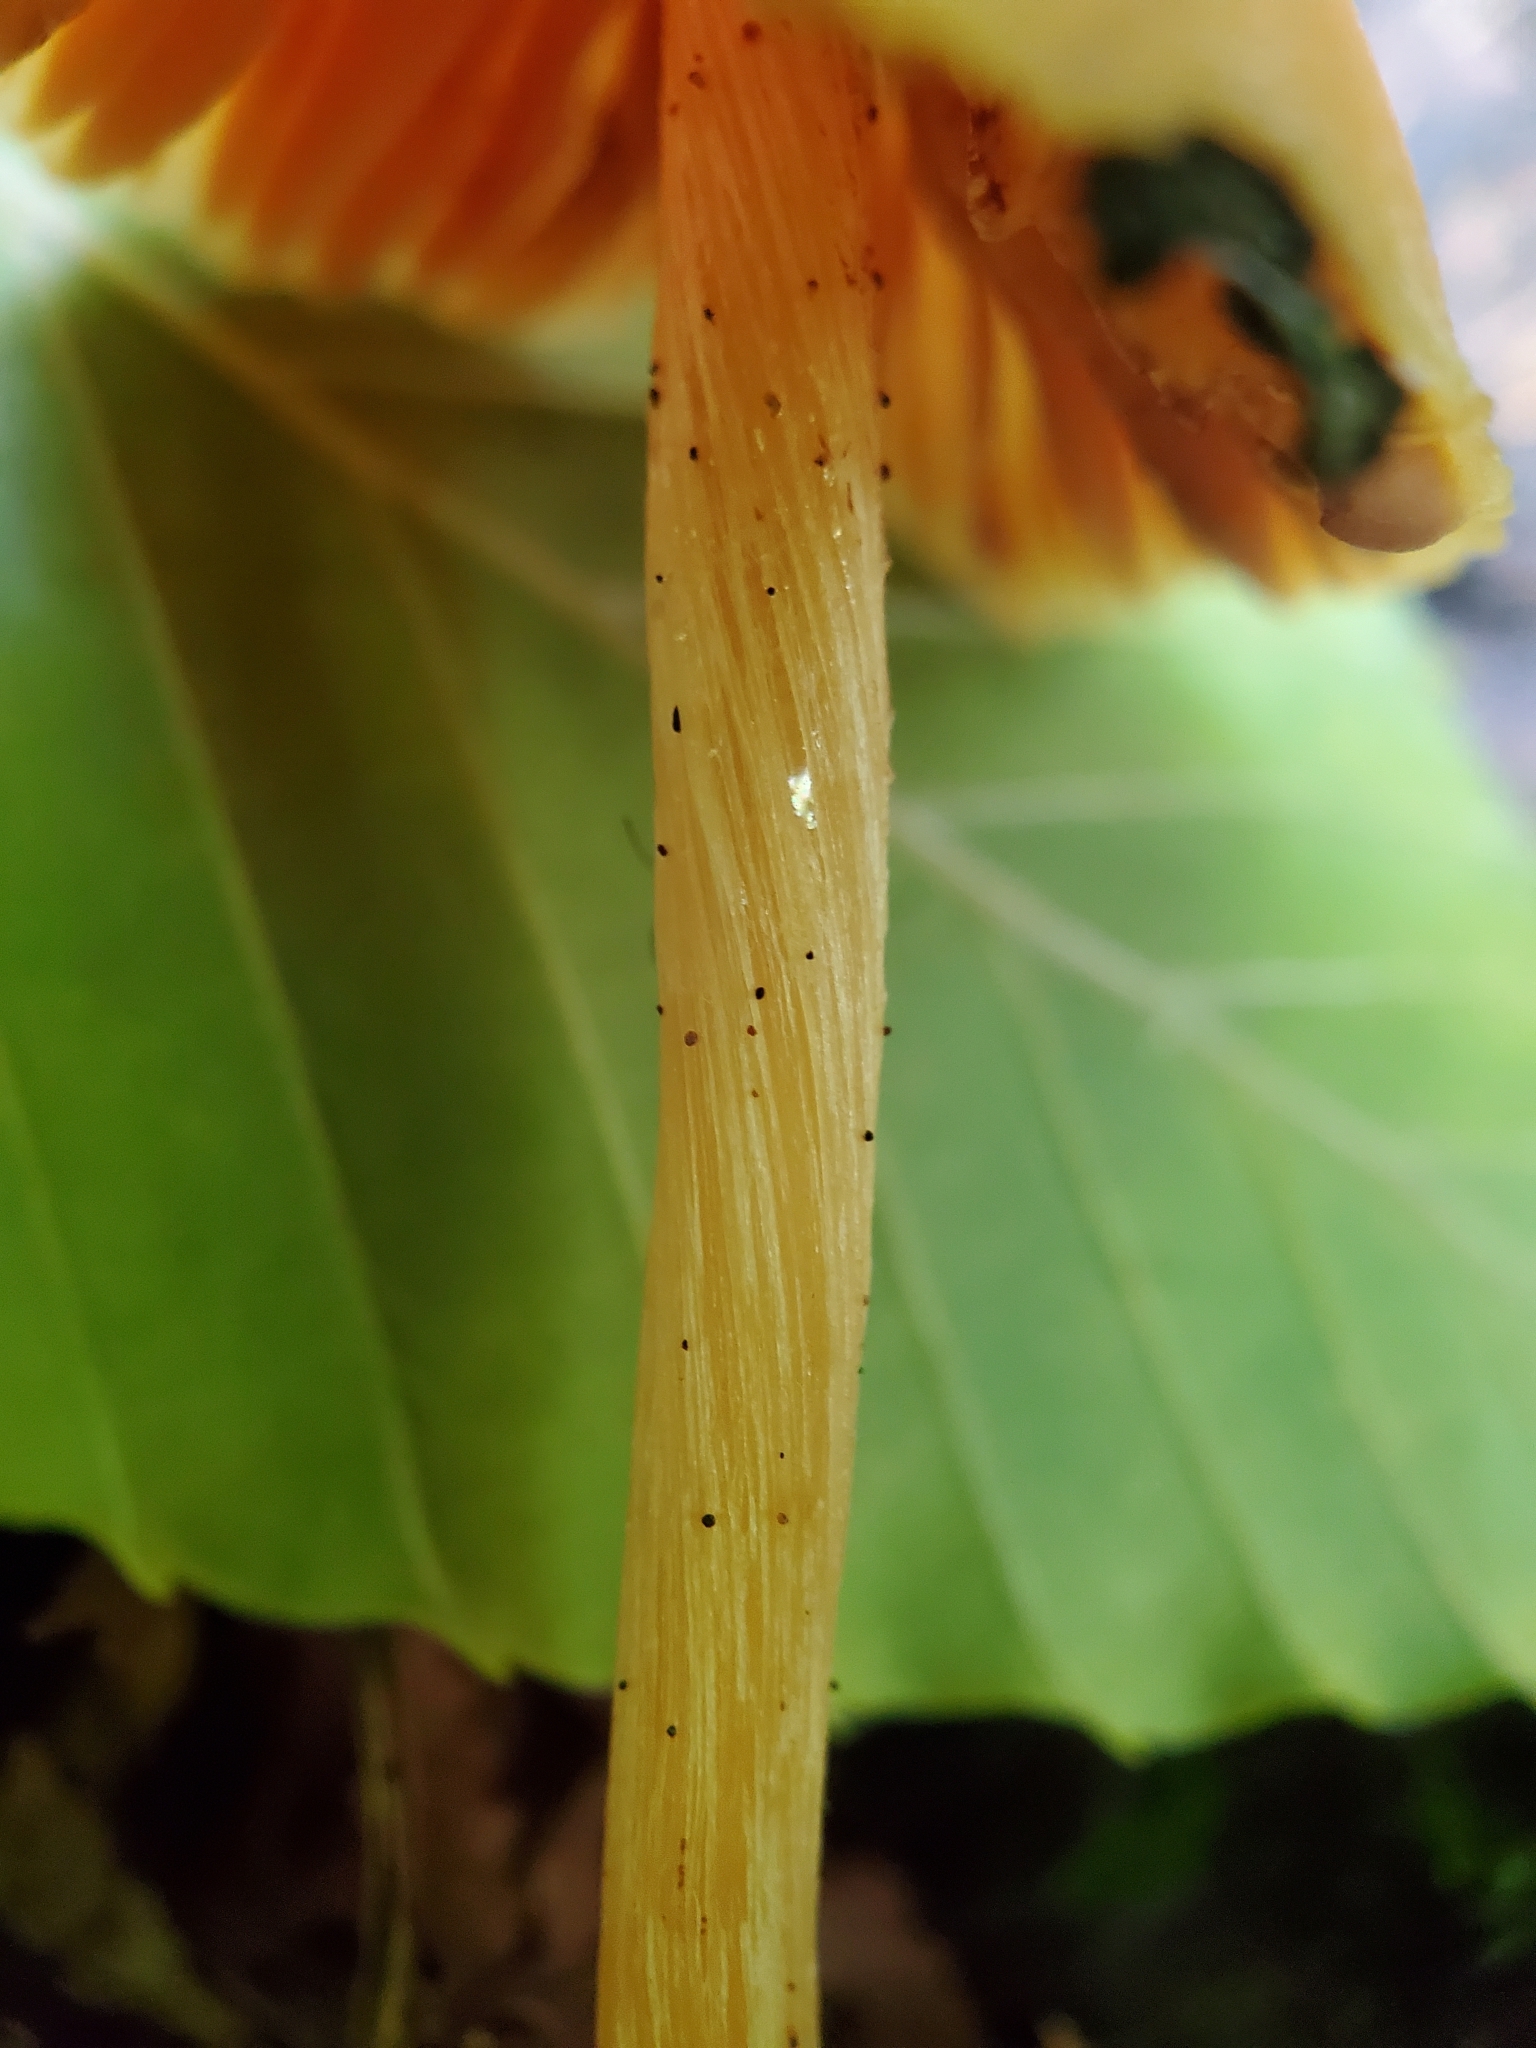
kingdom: Fungi
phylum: Basidiomycota
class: Agaricomycetes
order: Agaricales
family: Entolomataceae
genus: Entoloma
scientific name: Entoloma quadratum
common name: Salmon pinkgill
